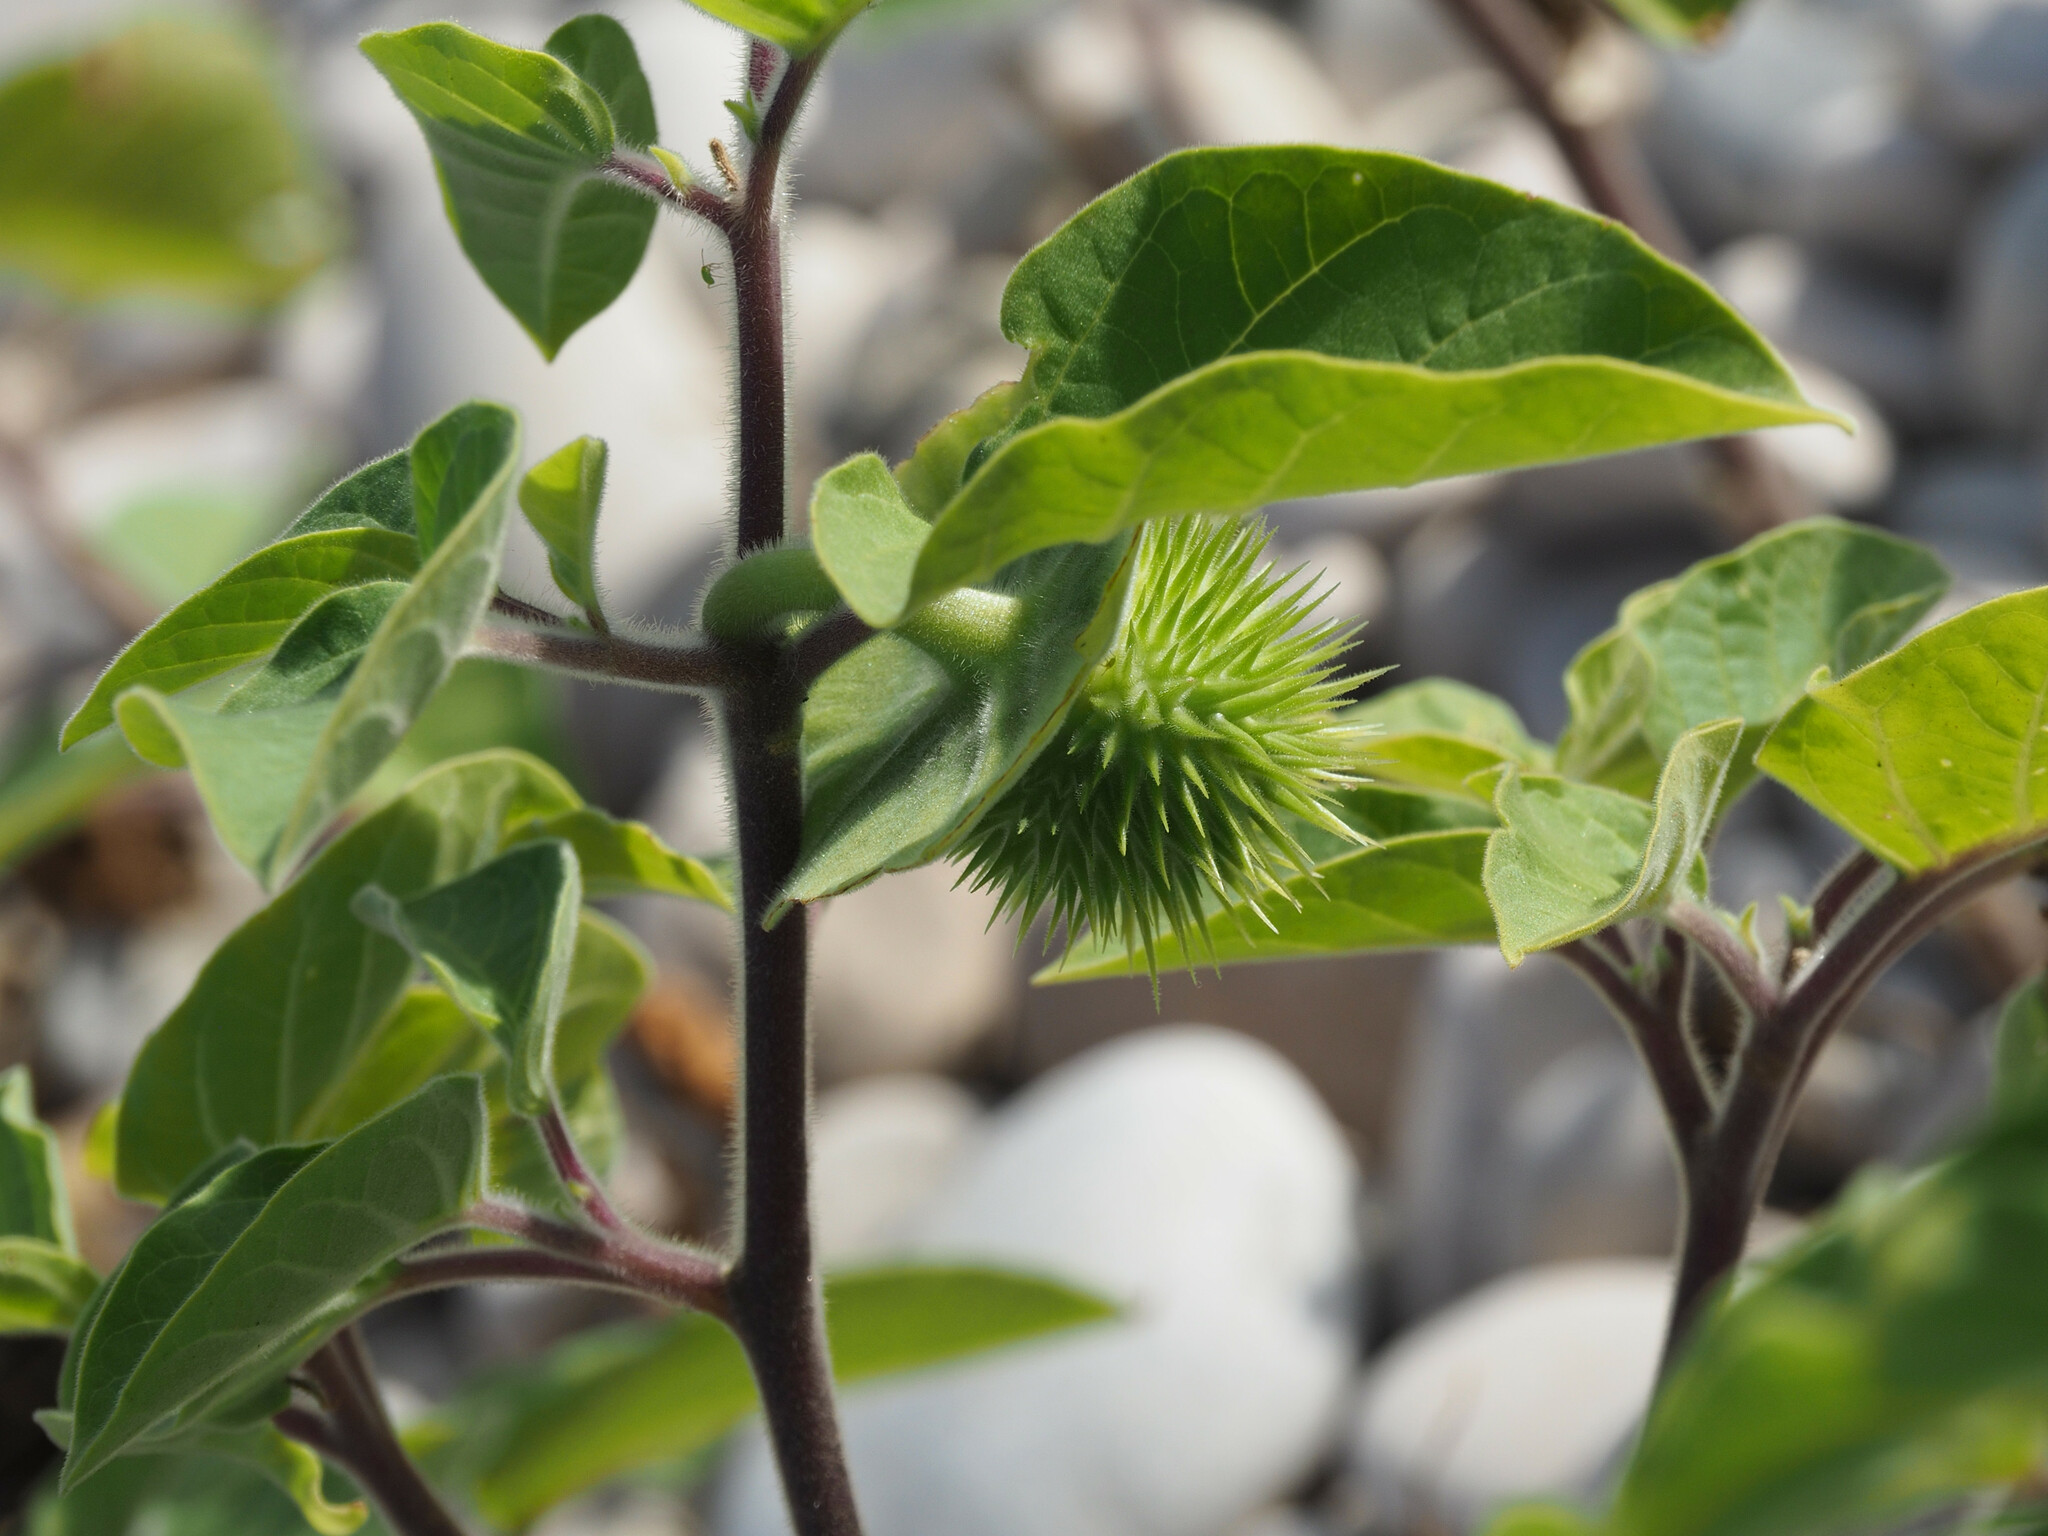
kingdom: Plantae
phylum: Tracheophyta
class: Magnoliopsida
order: Solanales
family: Solanaceae
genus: Datura
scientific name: Datura innoxia
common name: Downy thorn-apple
